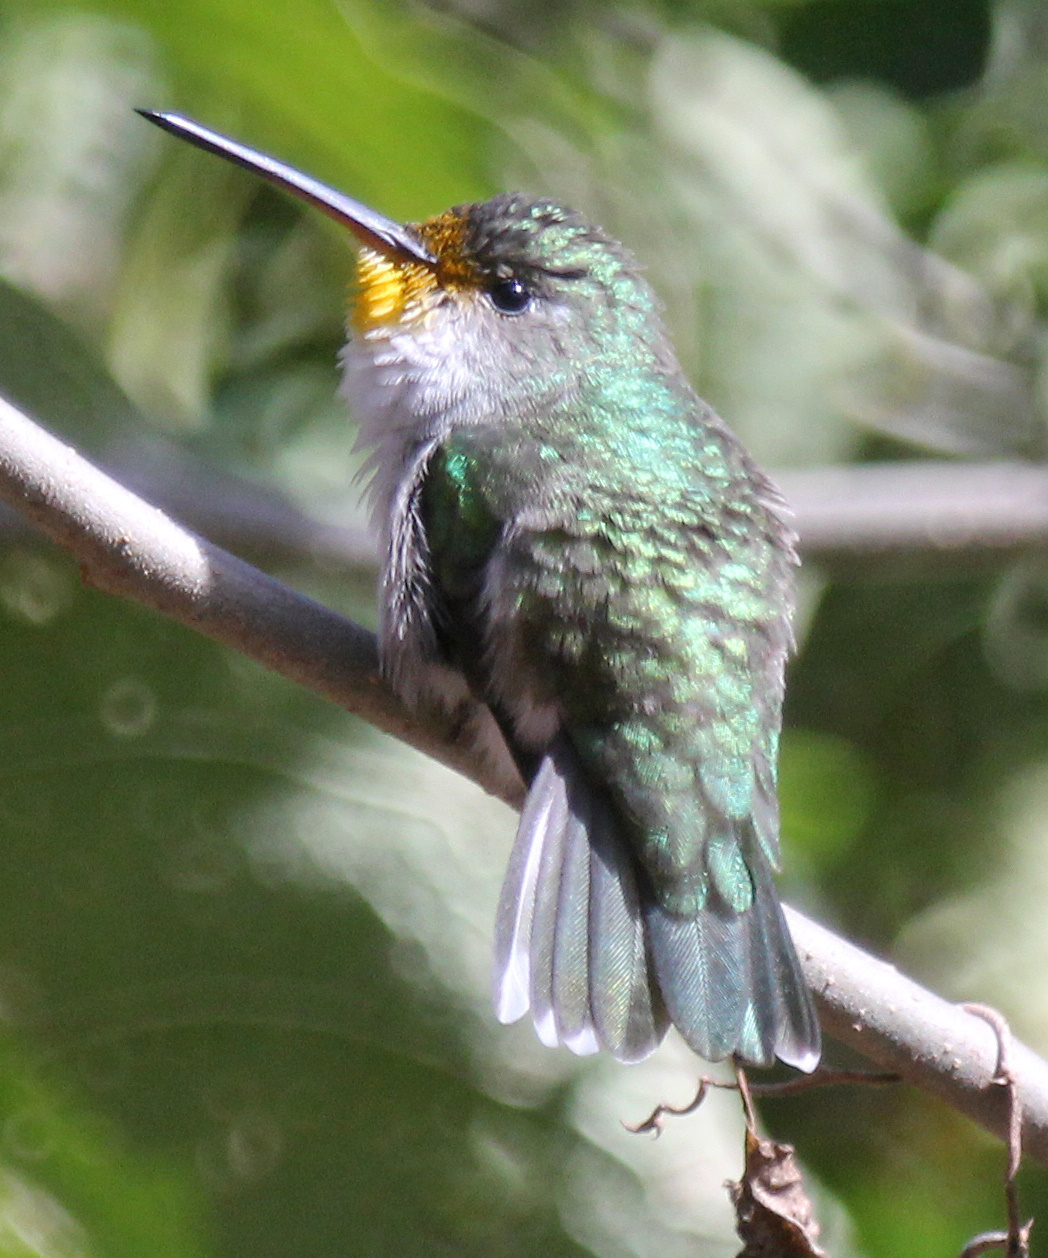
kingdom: Animalia
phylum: Chordata
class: Aves
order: Apodiformes
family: Trochilidae
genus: Elliotomyia
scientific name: Elliotomyia chionogaster
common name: White-bellied hummingbird
